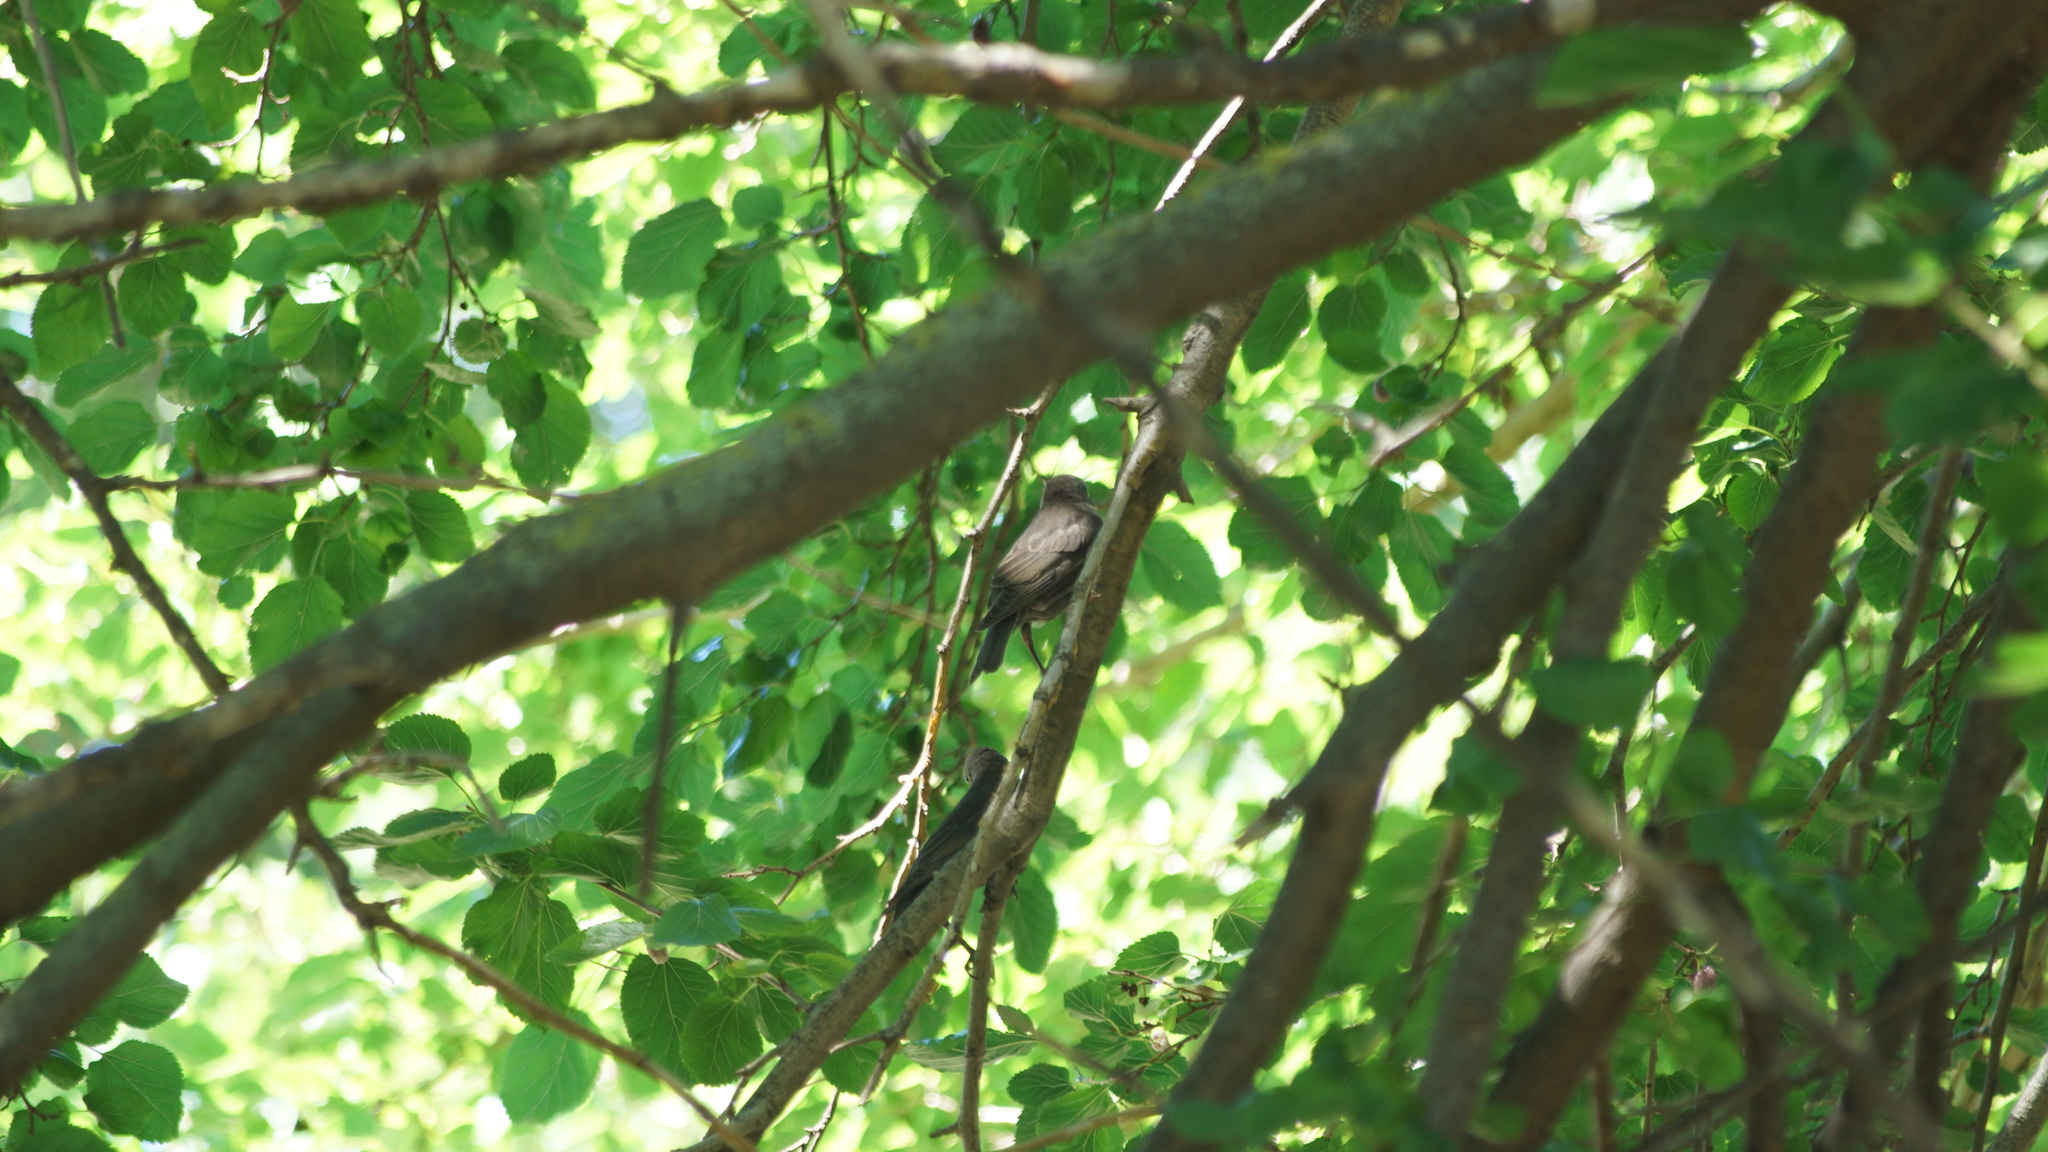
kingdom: Animalia
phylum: Chordata
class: Aves
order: Passeriformes
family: Turdidae
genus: Turdus
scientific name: Turdus merula
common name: Common blackbird
